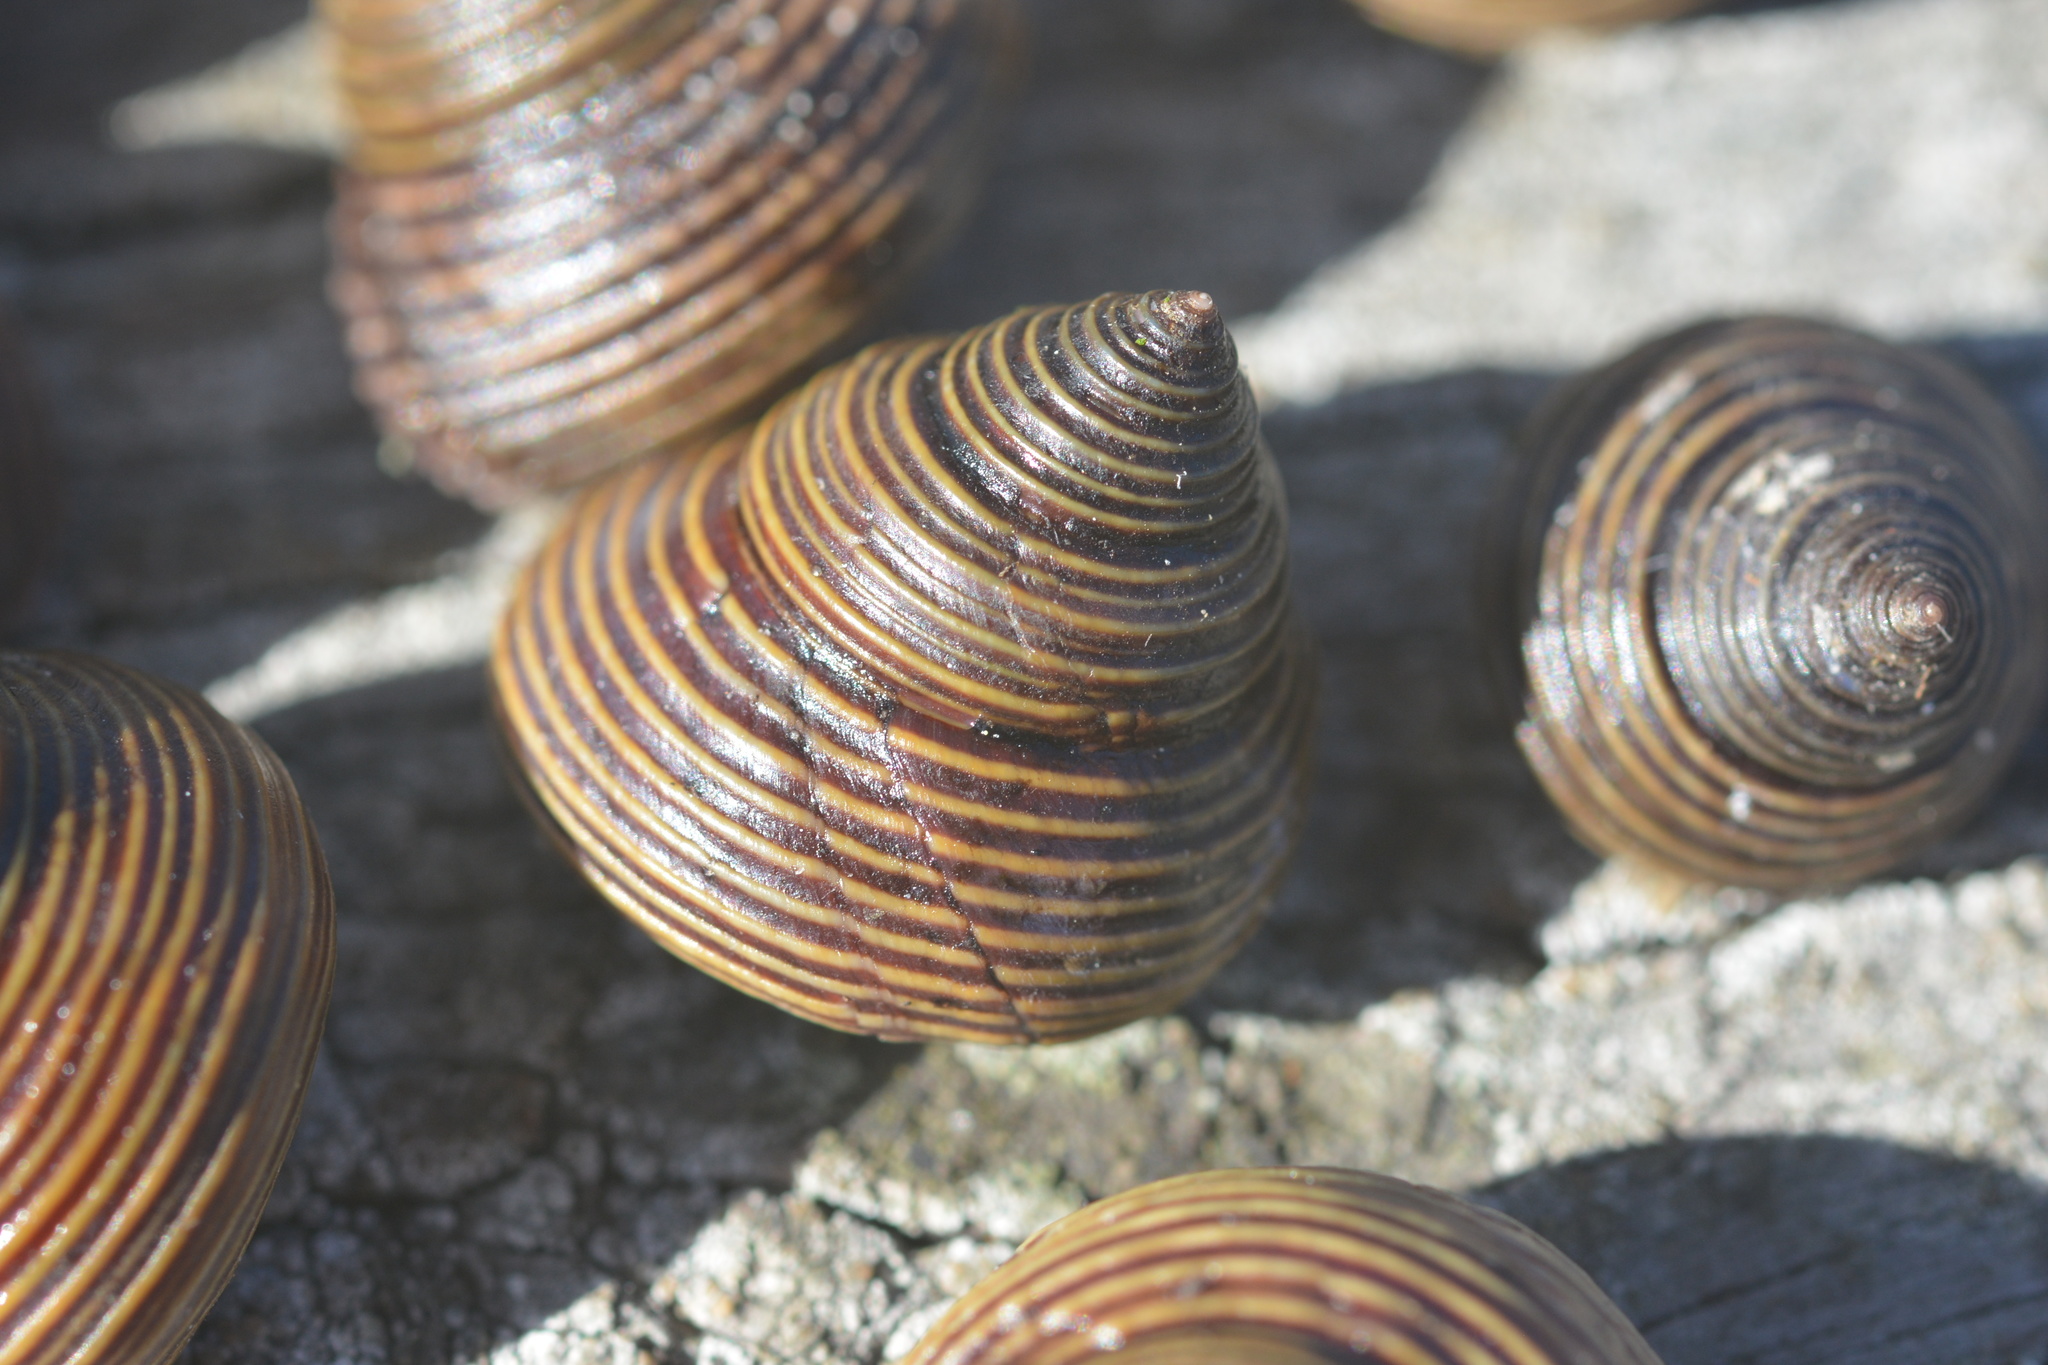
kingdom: Animalia
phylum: Mollusca
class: Gastropoda
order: Trochida
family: Calliostomatidae
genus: Calliostoma
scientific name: Calliostoma ligatum
